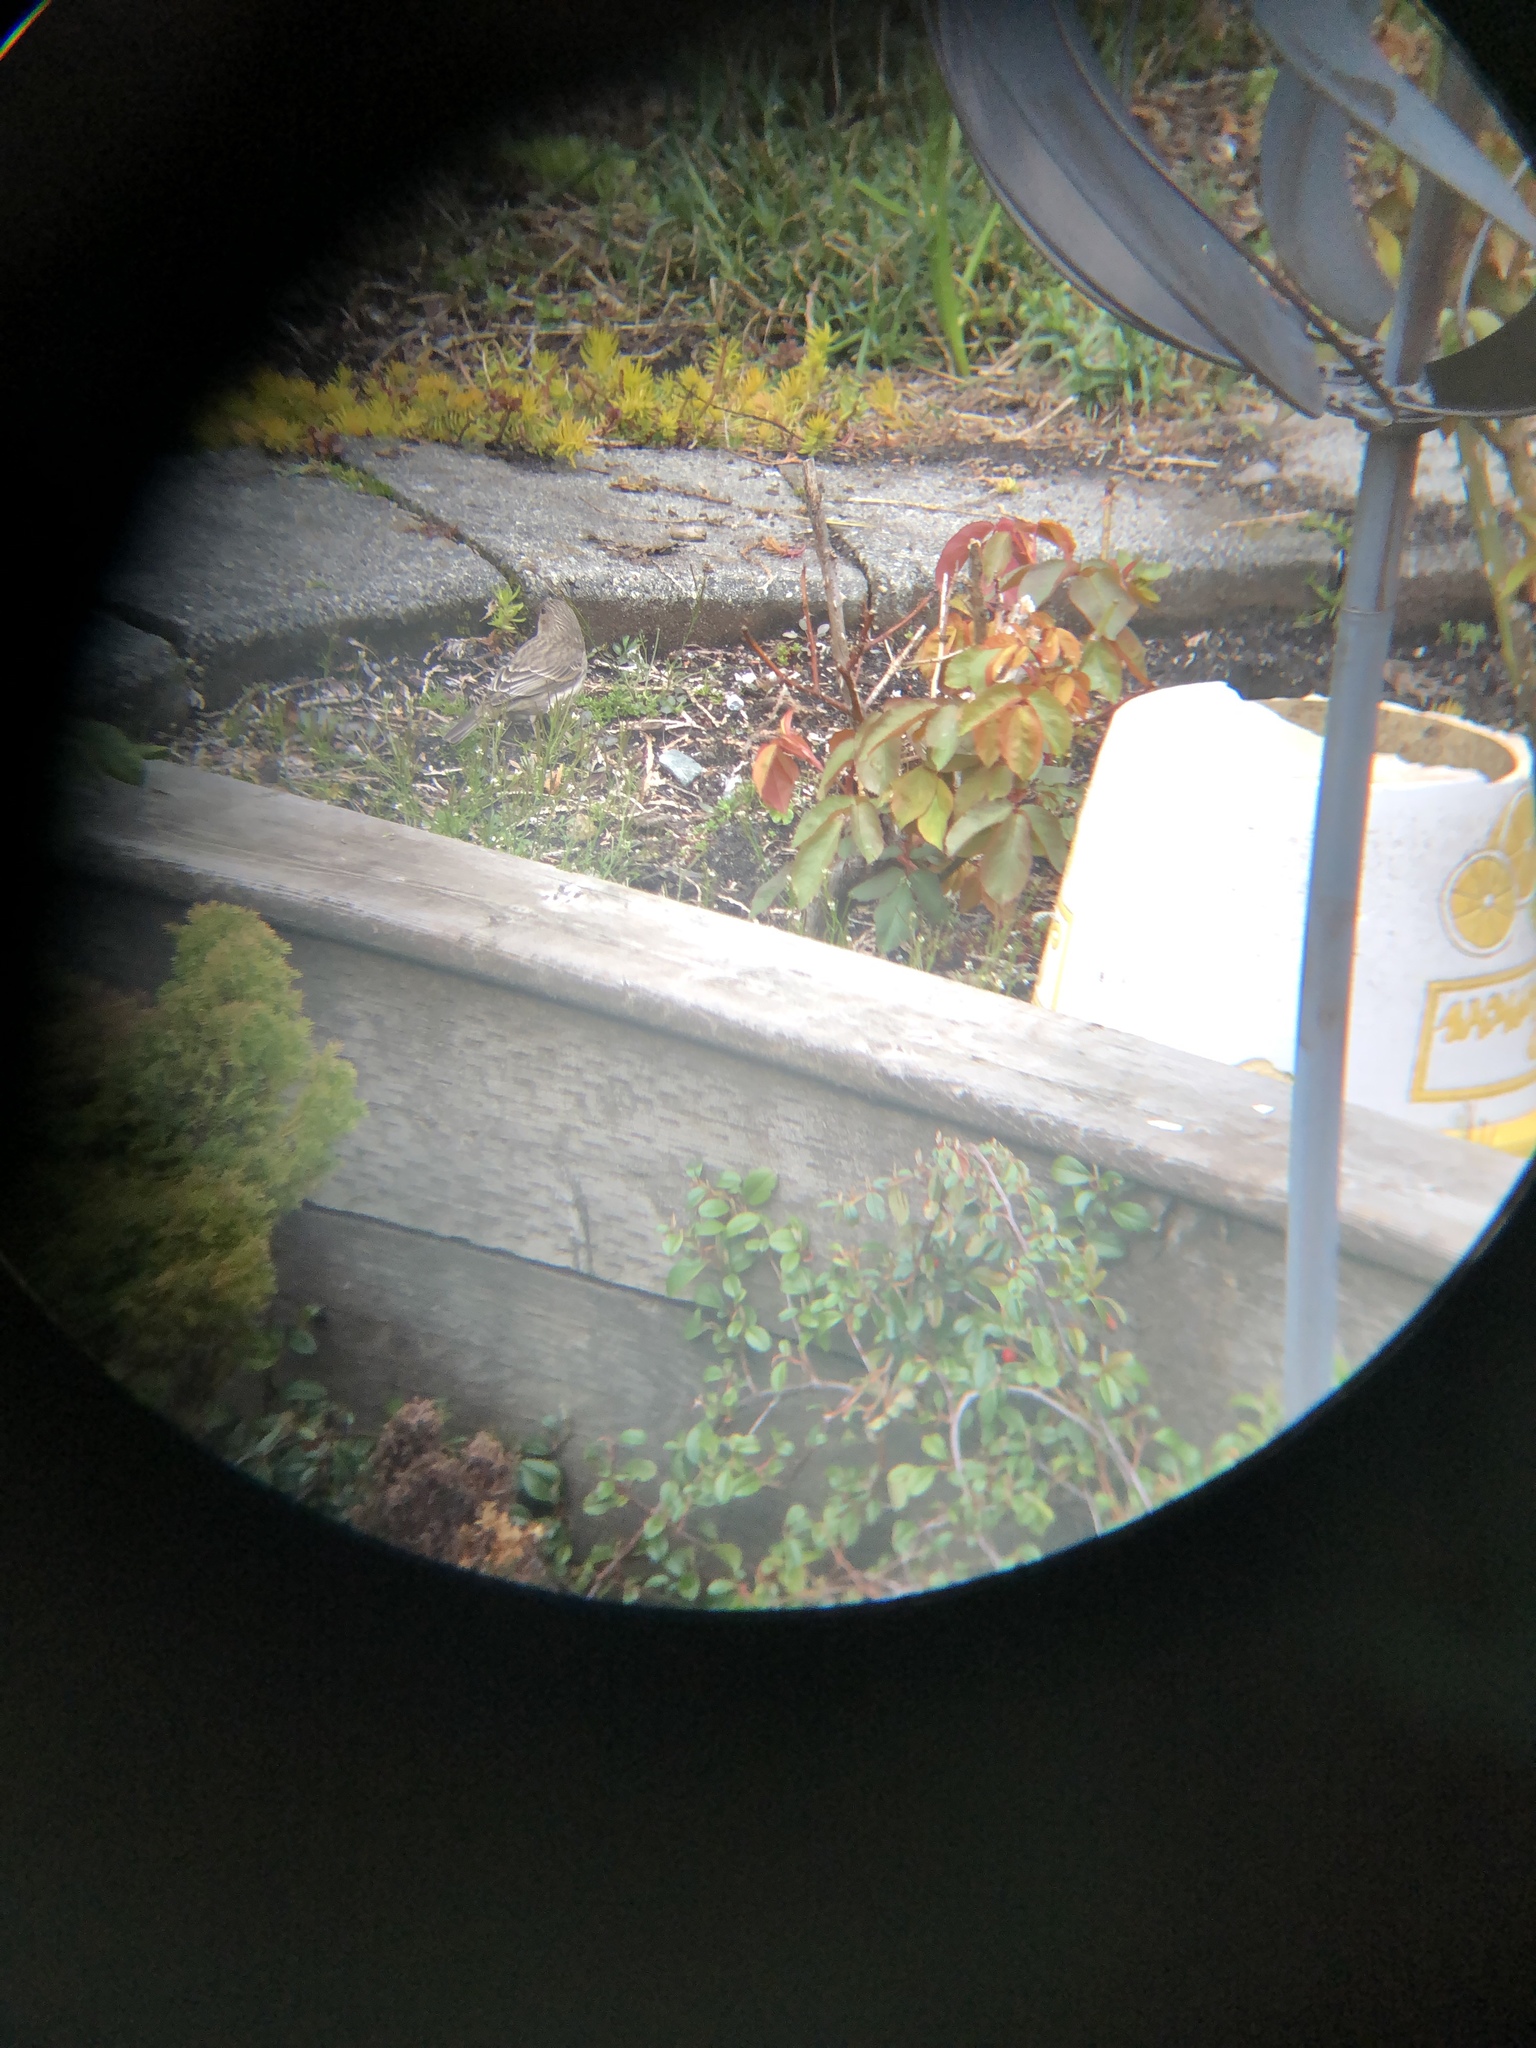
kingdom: Animalia
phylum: Chordata
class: Aves
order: Passeriformes
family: Fringillidae
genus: Haemorhous
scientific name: Haemorhous mexicanus
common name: House finch
